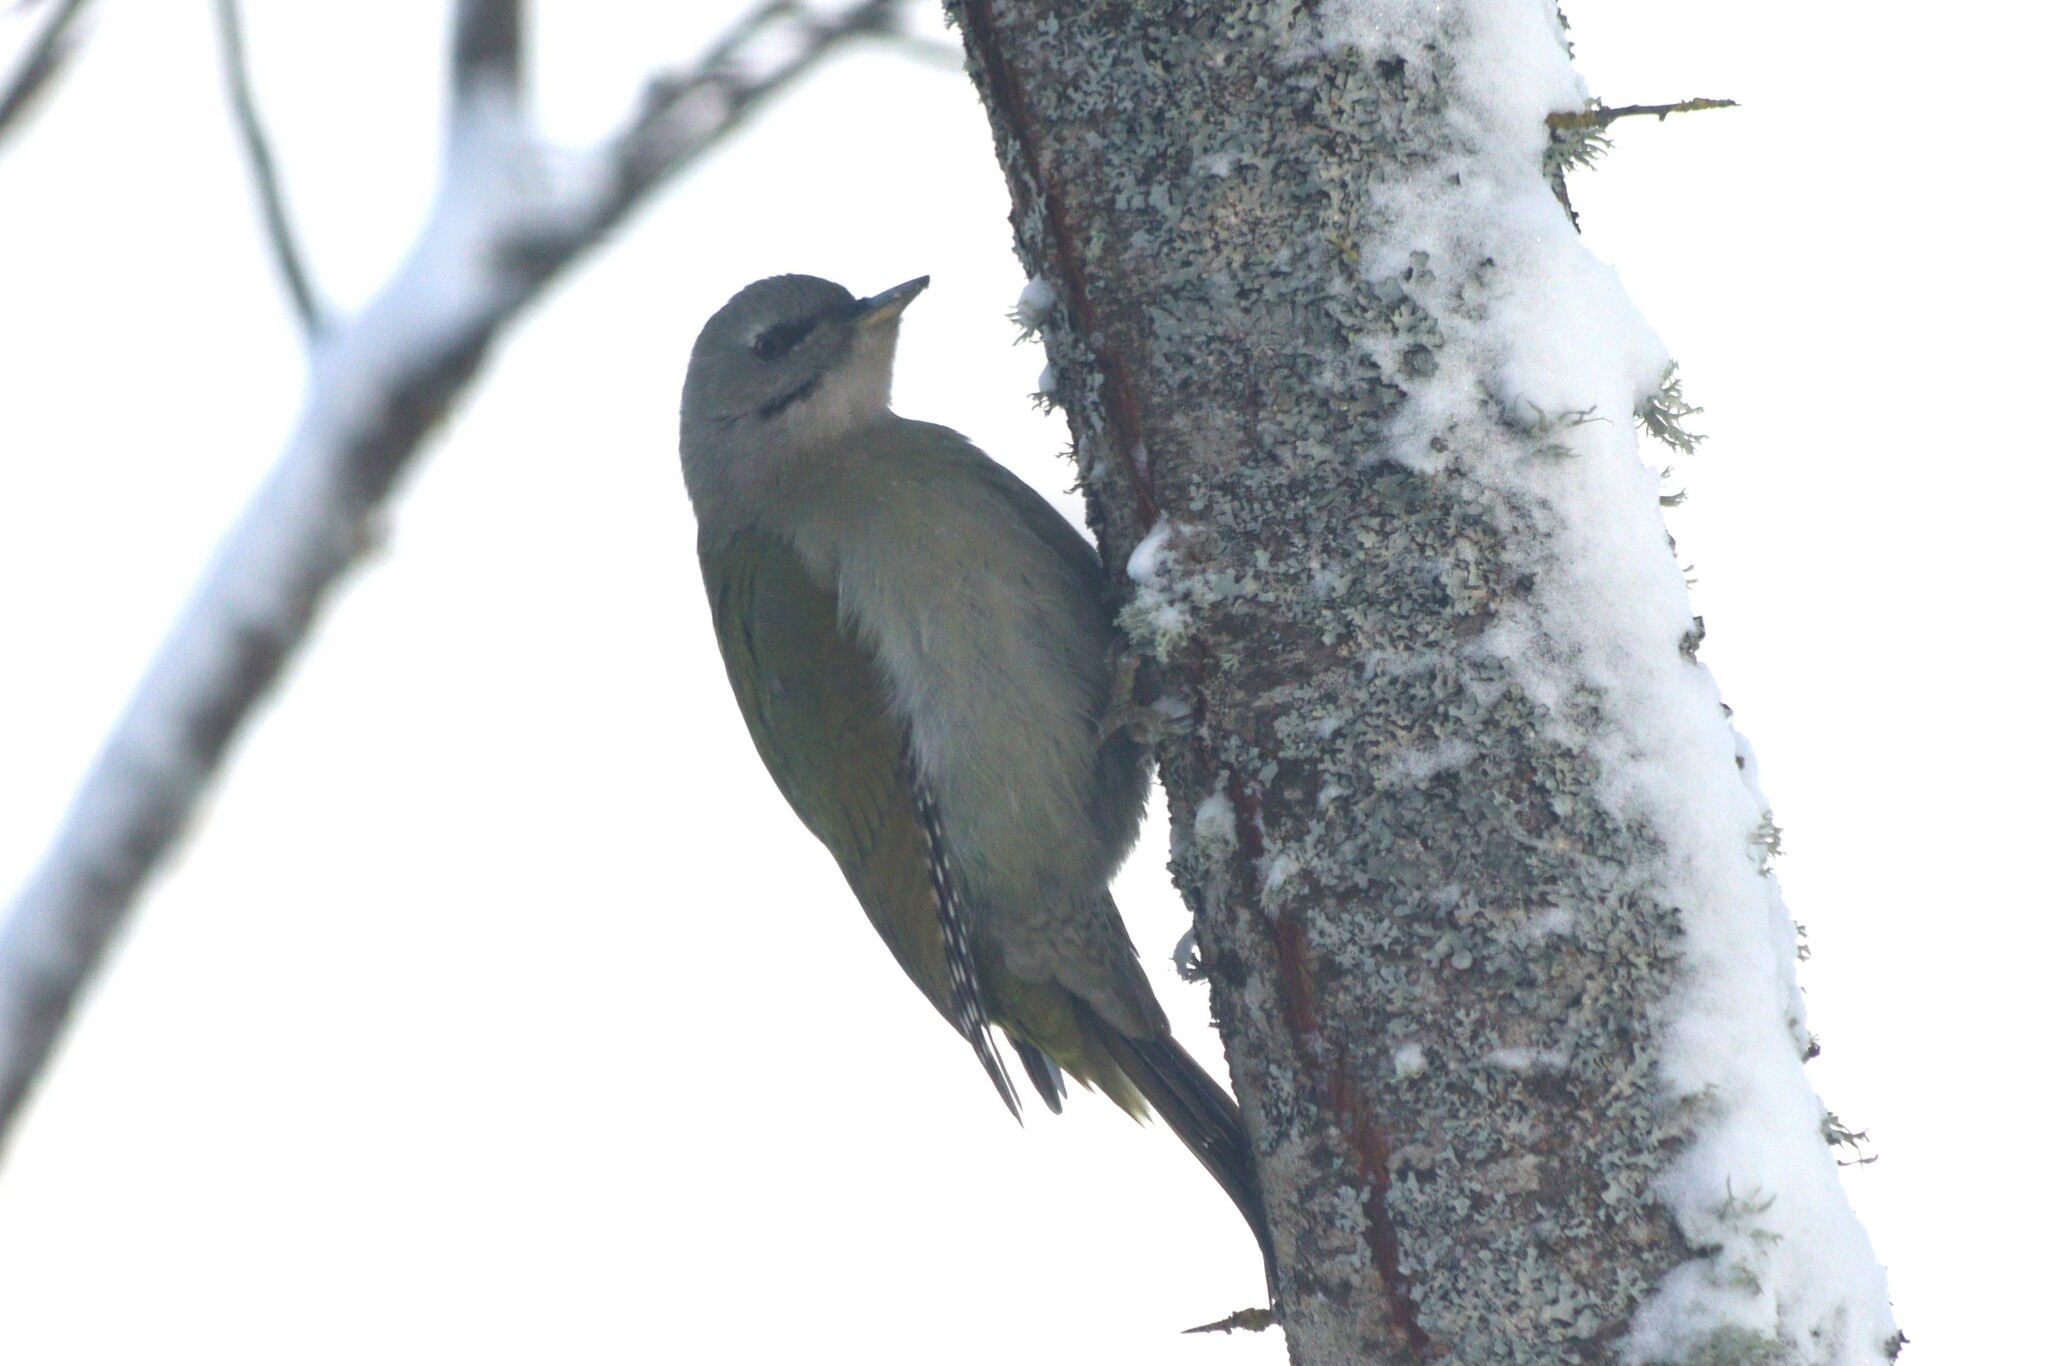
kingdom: Animalia
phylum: Chordata
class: Aves
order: Piciformes
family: Picidae
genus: Picus
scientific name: Picus canus
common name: Grey-headed woodpecker
